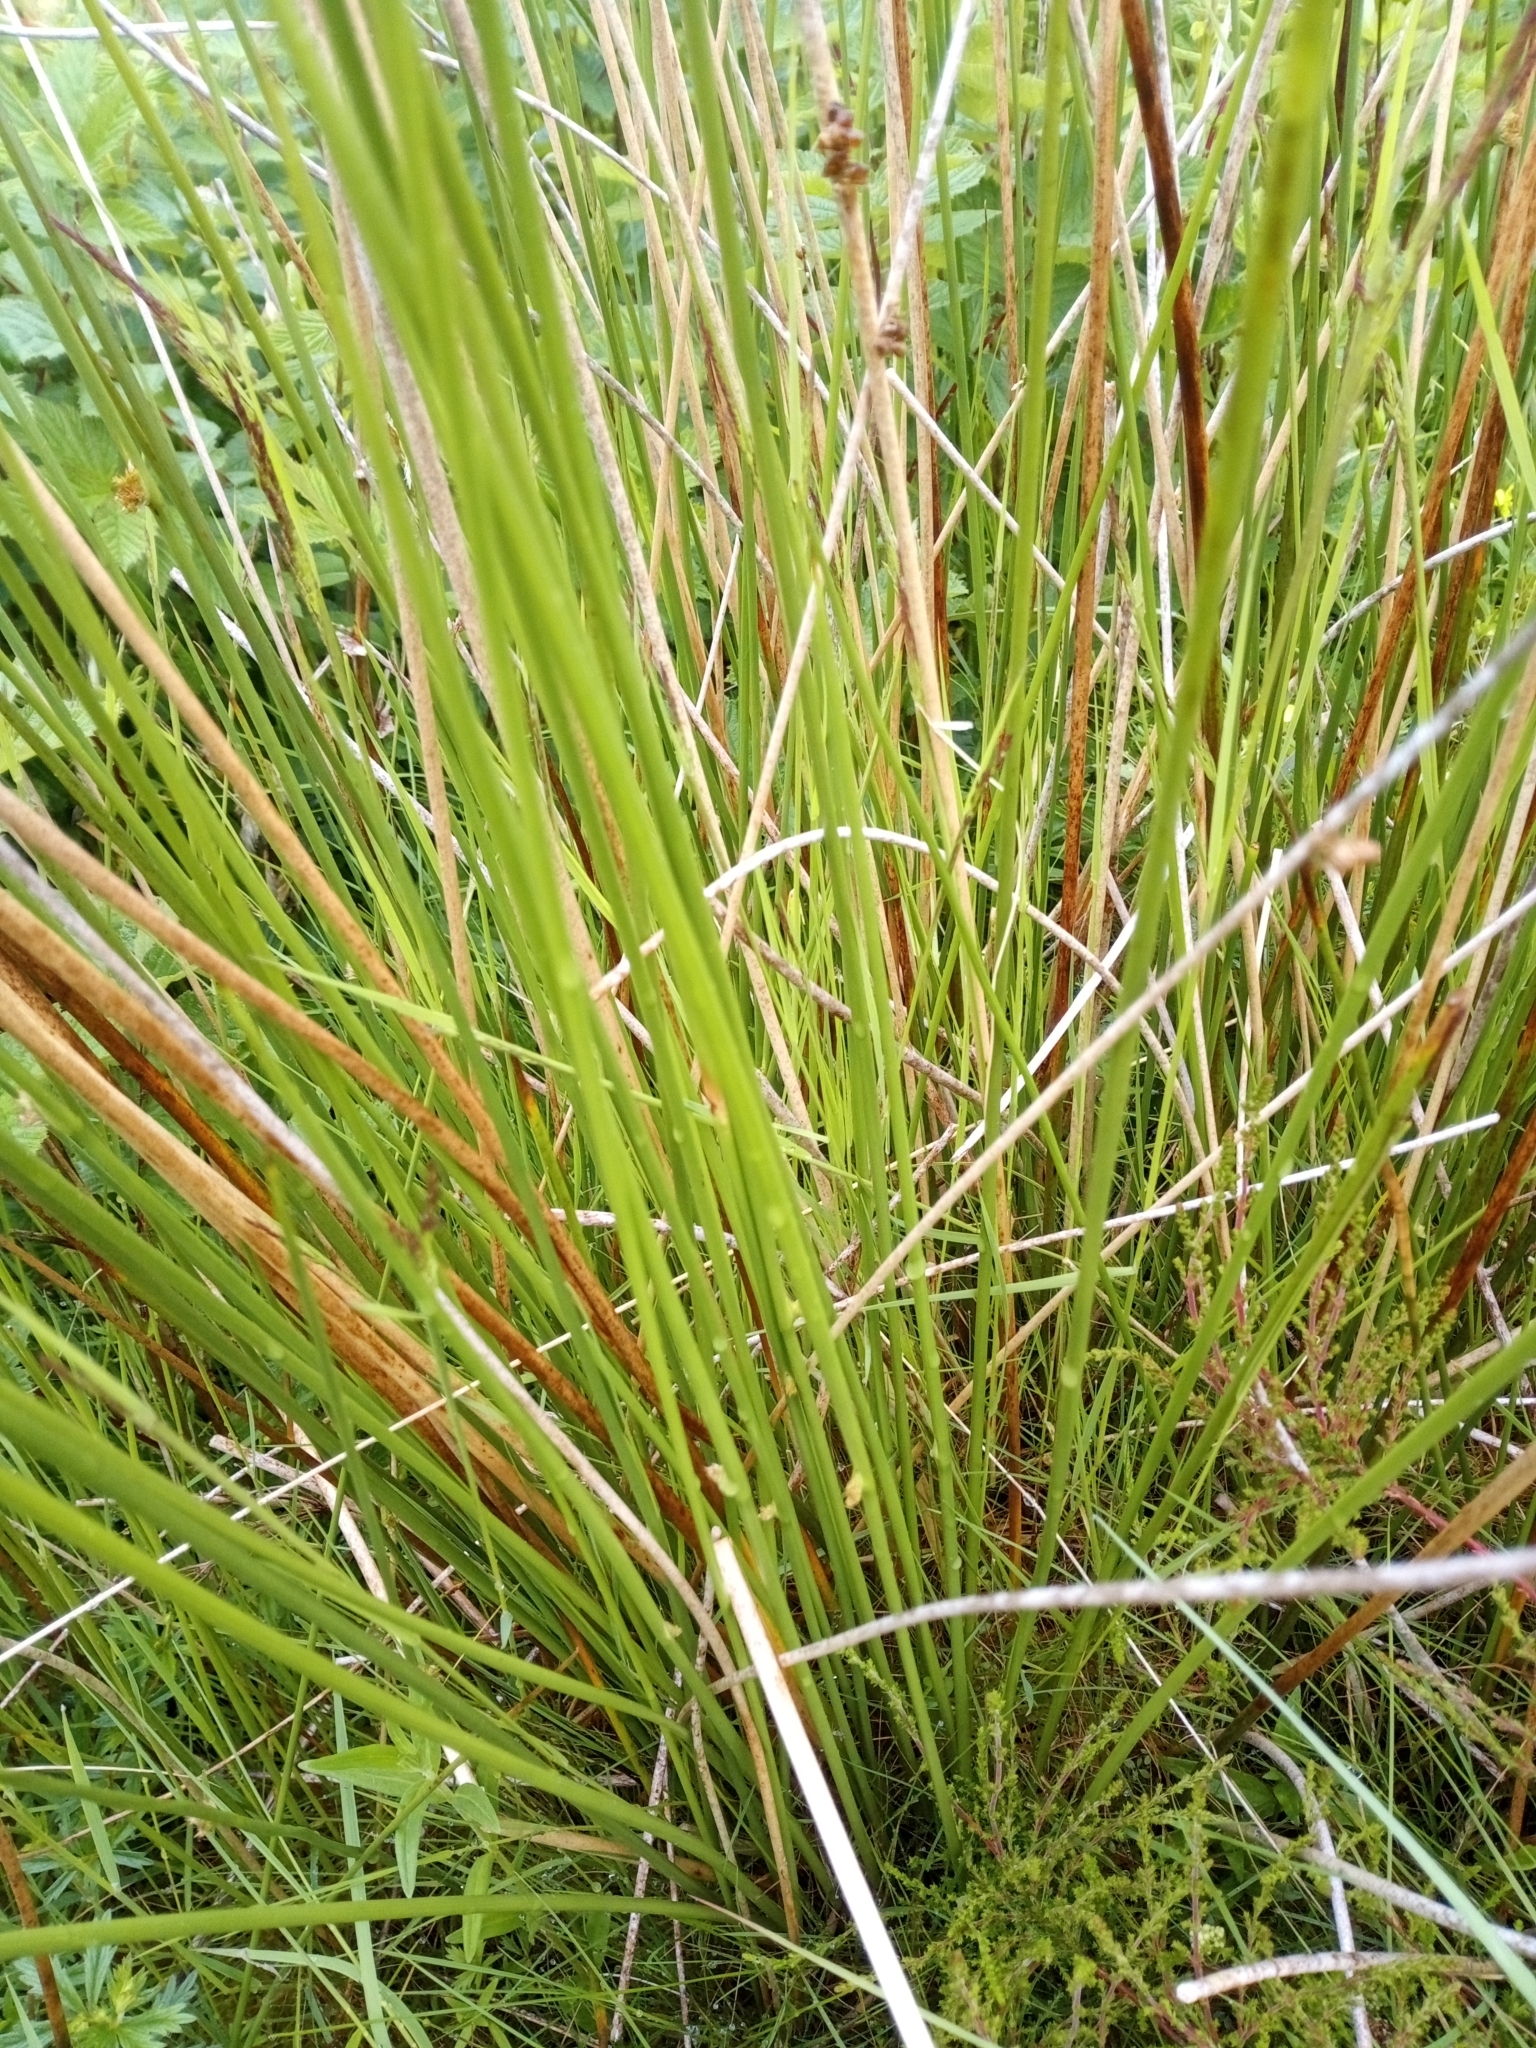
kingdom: Plantae
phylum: Tracheophyta
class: Liliopsida
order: Poales
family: Juncaceae
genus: Juncus
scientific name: Juncus effusus
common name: Soft rush
